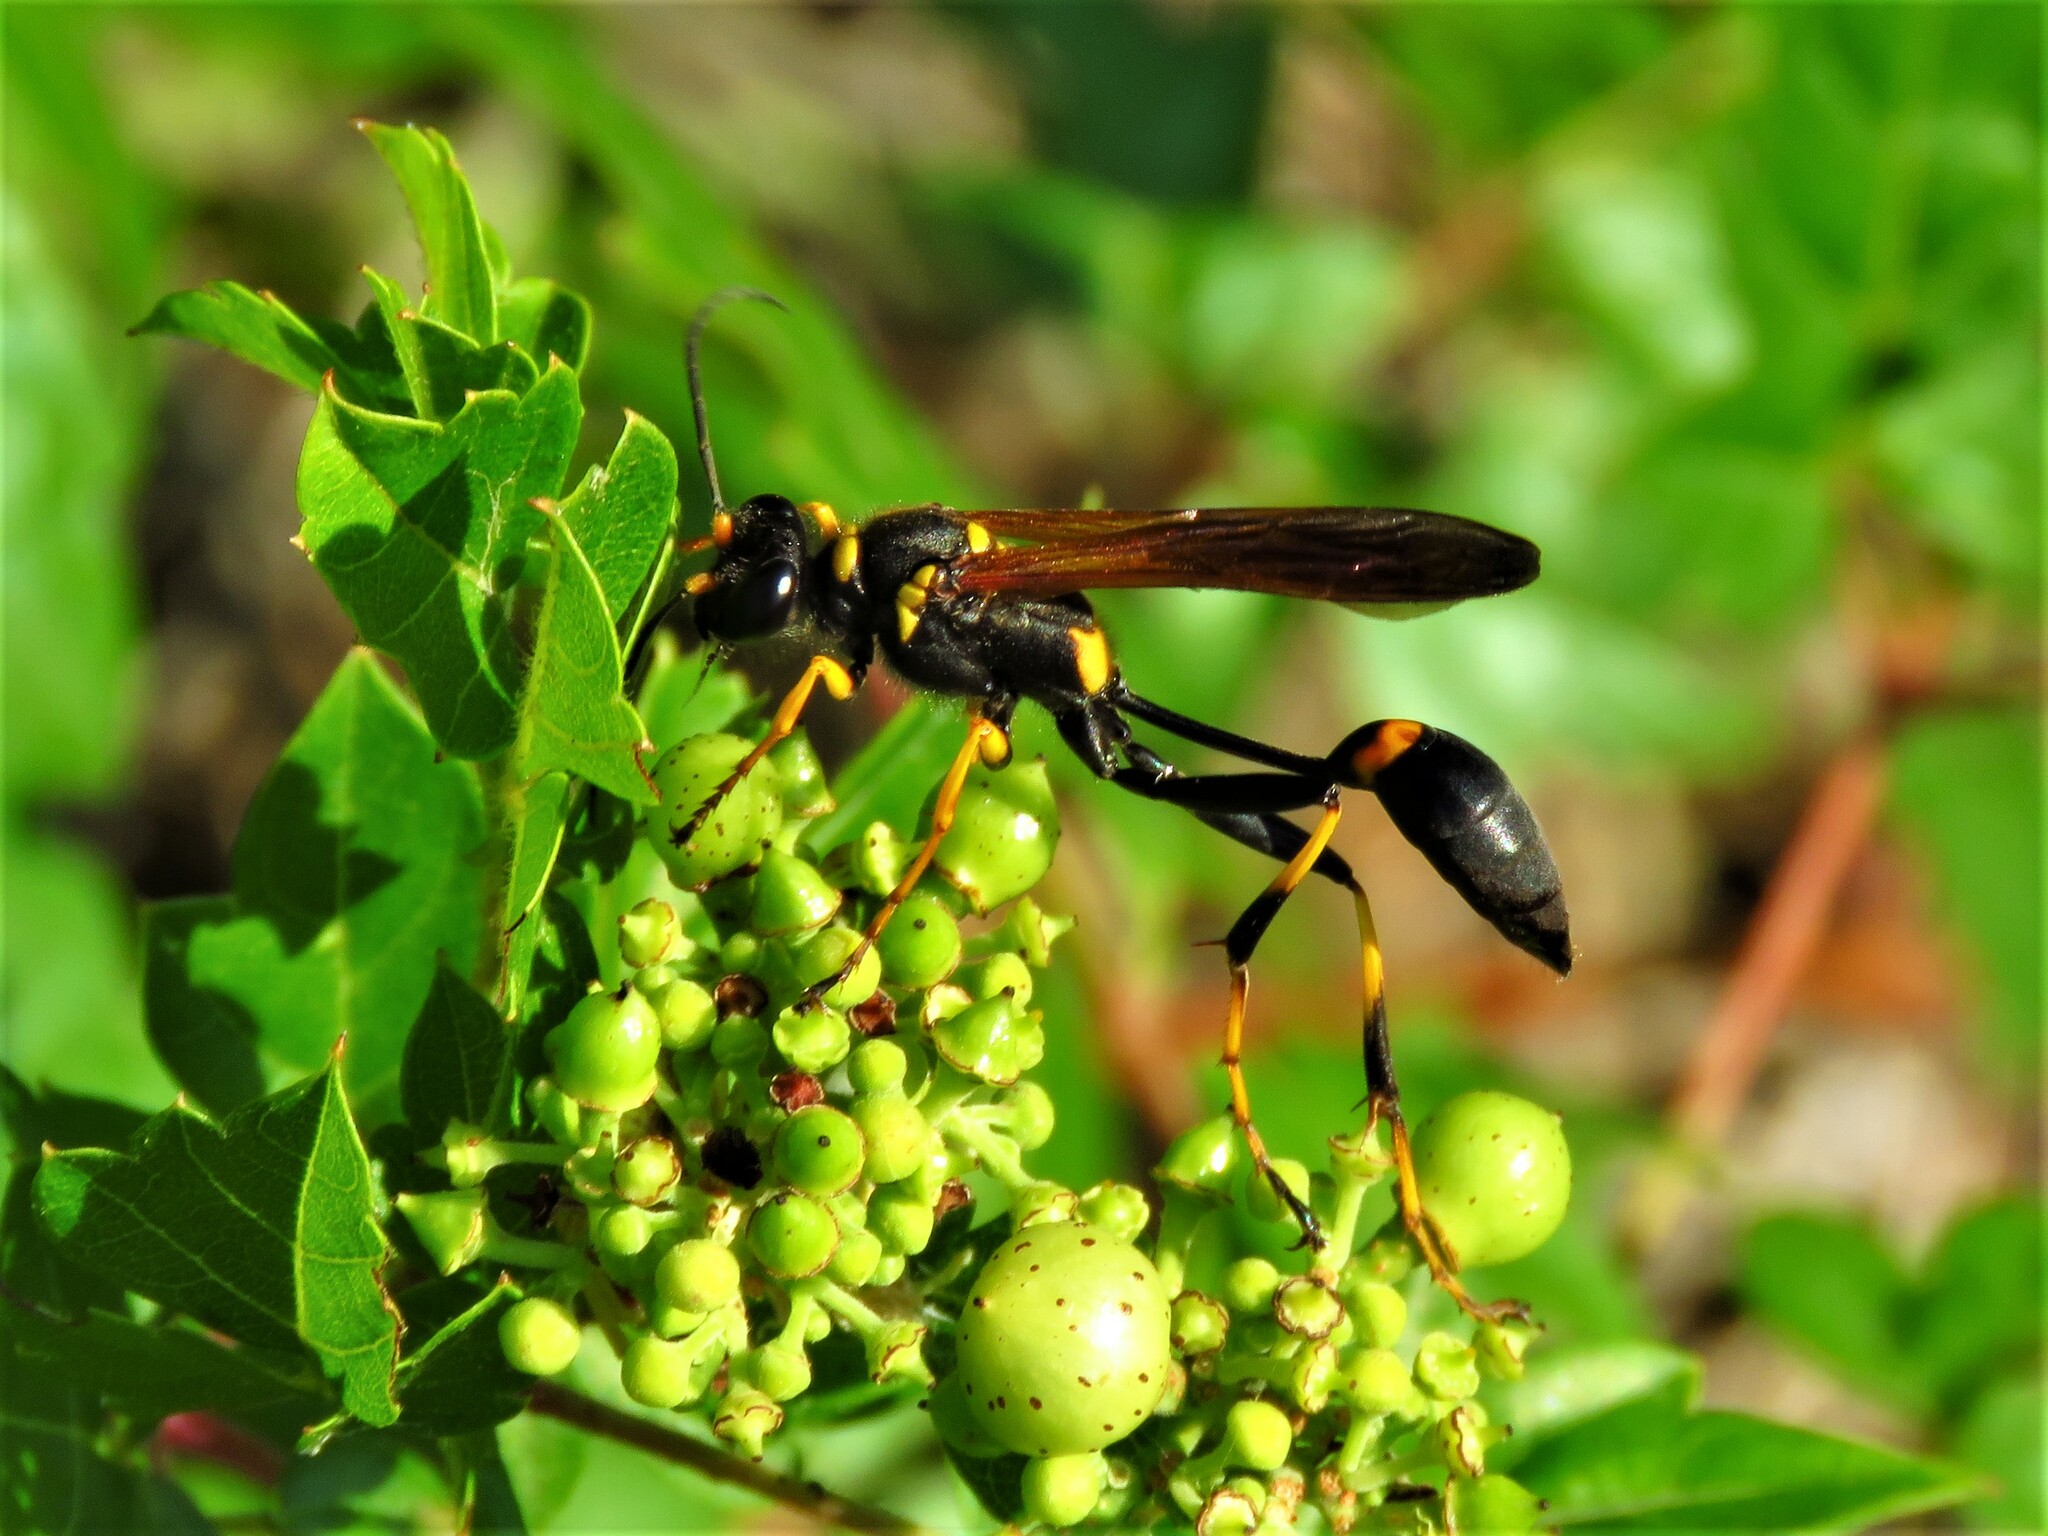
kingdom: Animalia
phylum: Arthropoda
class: Insecta
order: Hymenoptera
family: Sphecidae
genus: Sceliphron
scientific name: Sceliphron caementarium
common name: Mud dauber
